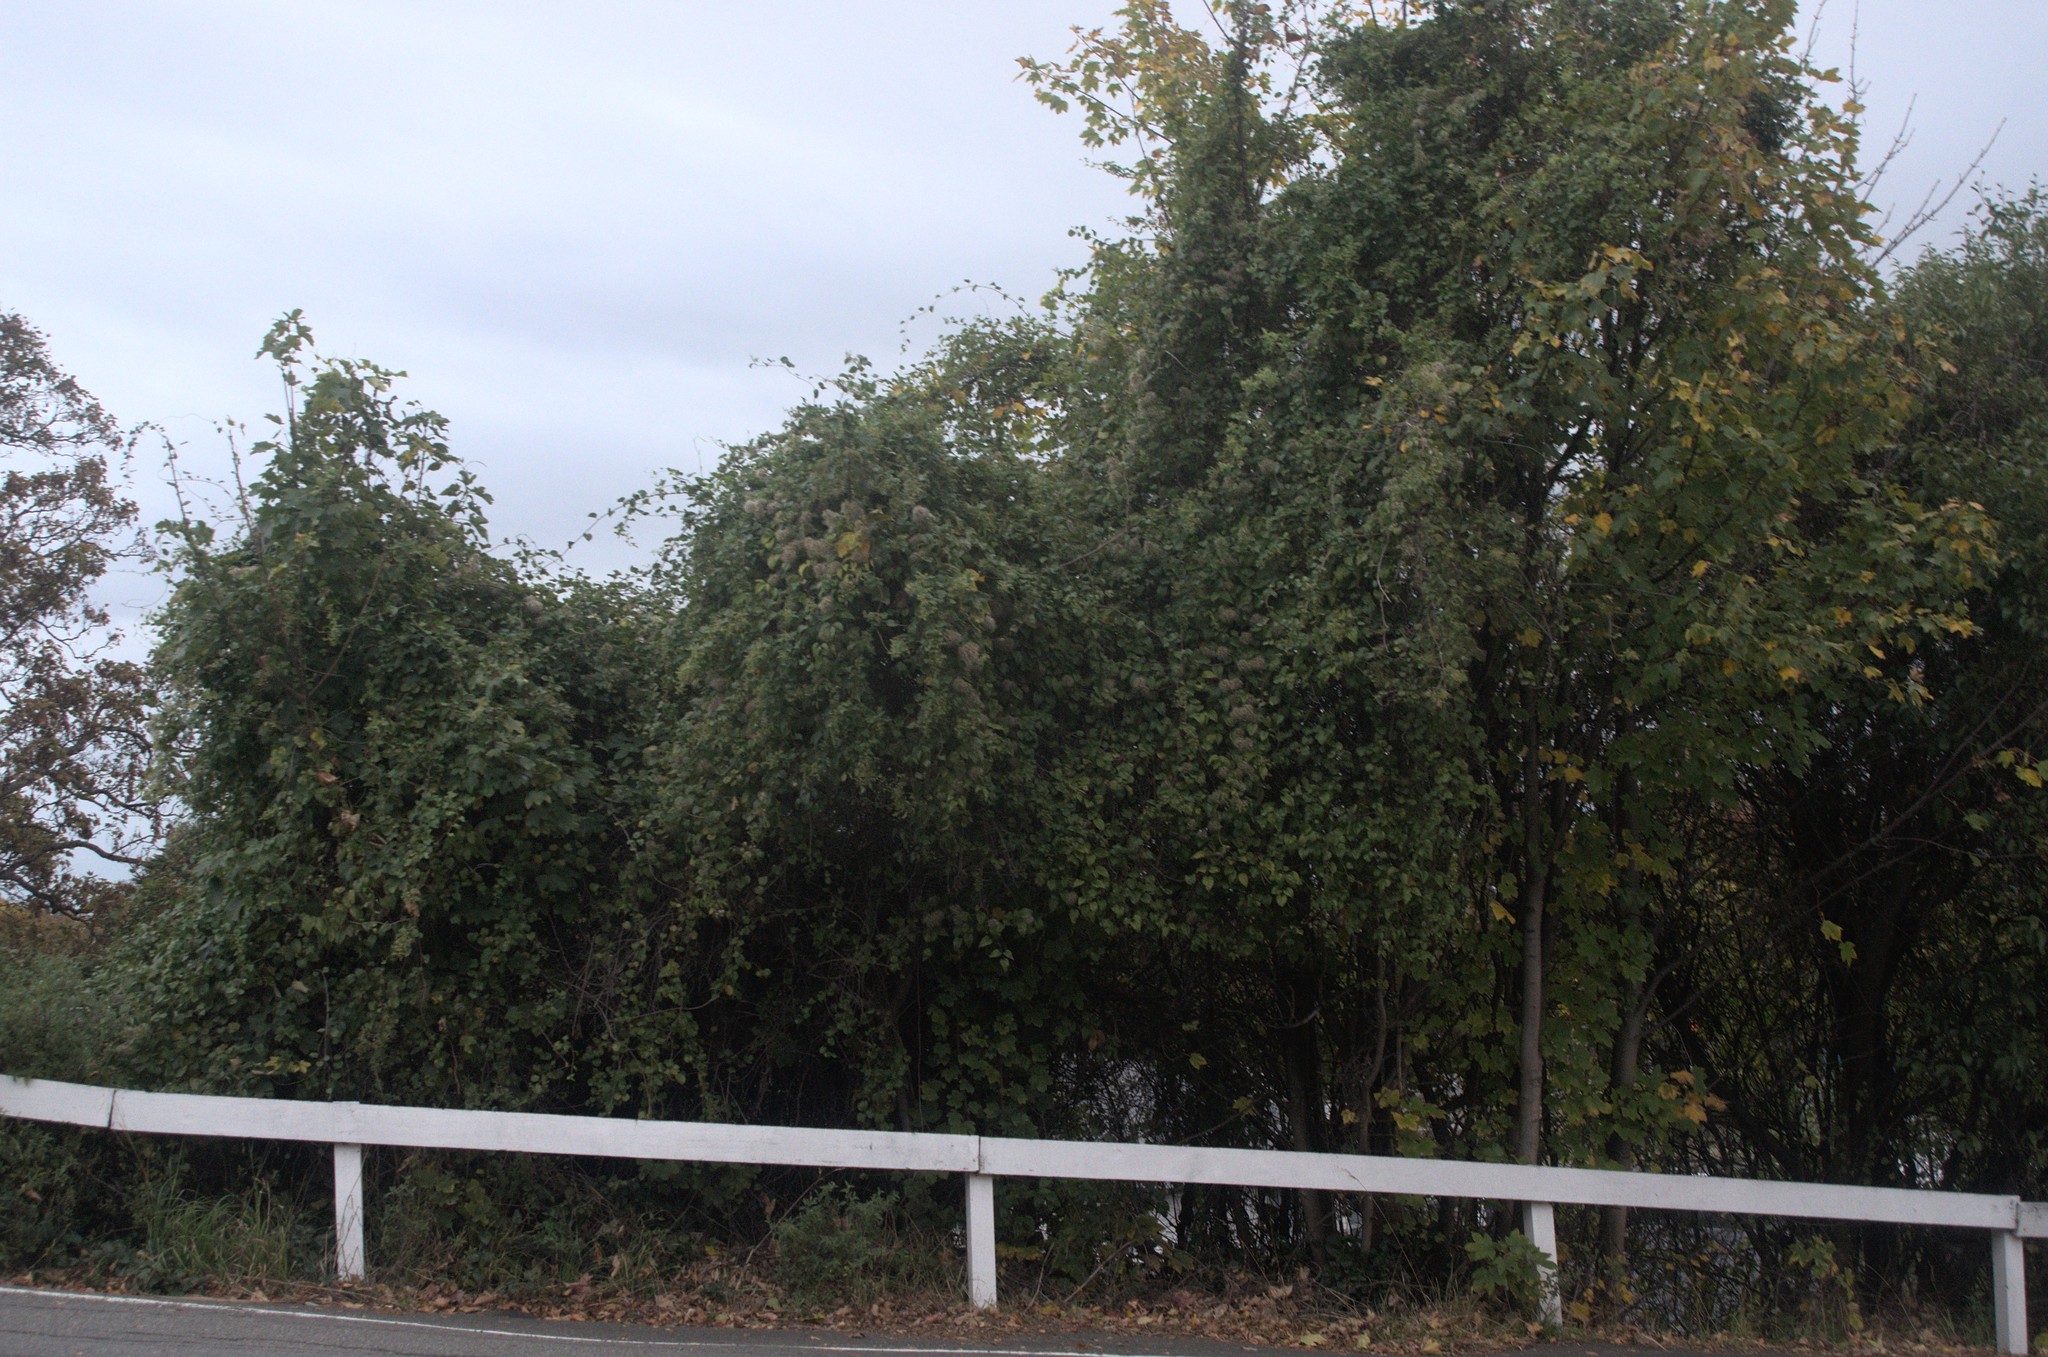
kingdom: Plantae
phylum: Tracheophyta
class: Magnoliopsida
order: Ranunculales
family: Ranunculaceae
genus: Clematis
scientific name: Clematis vitalba
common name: Evergreen clematis
